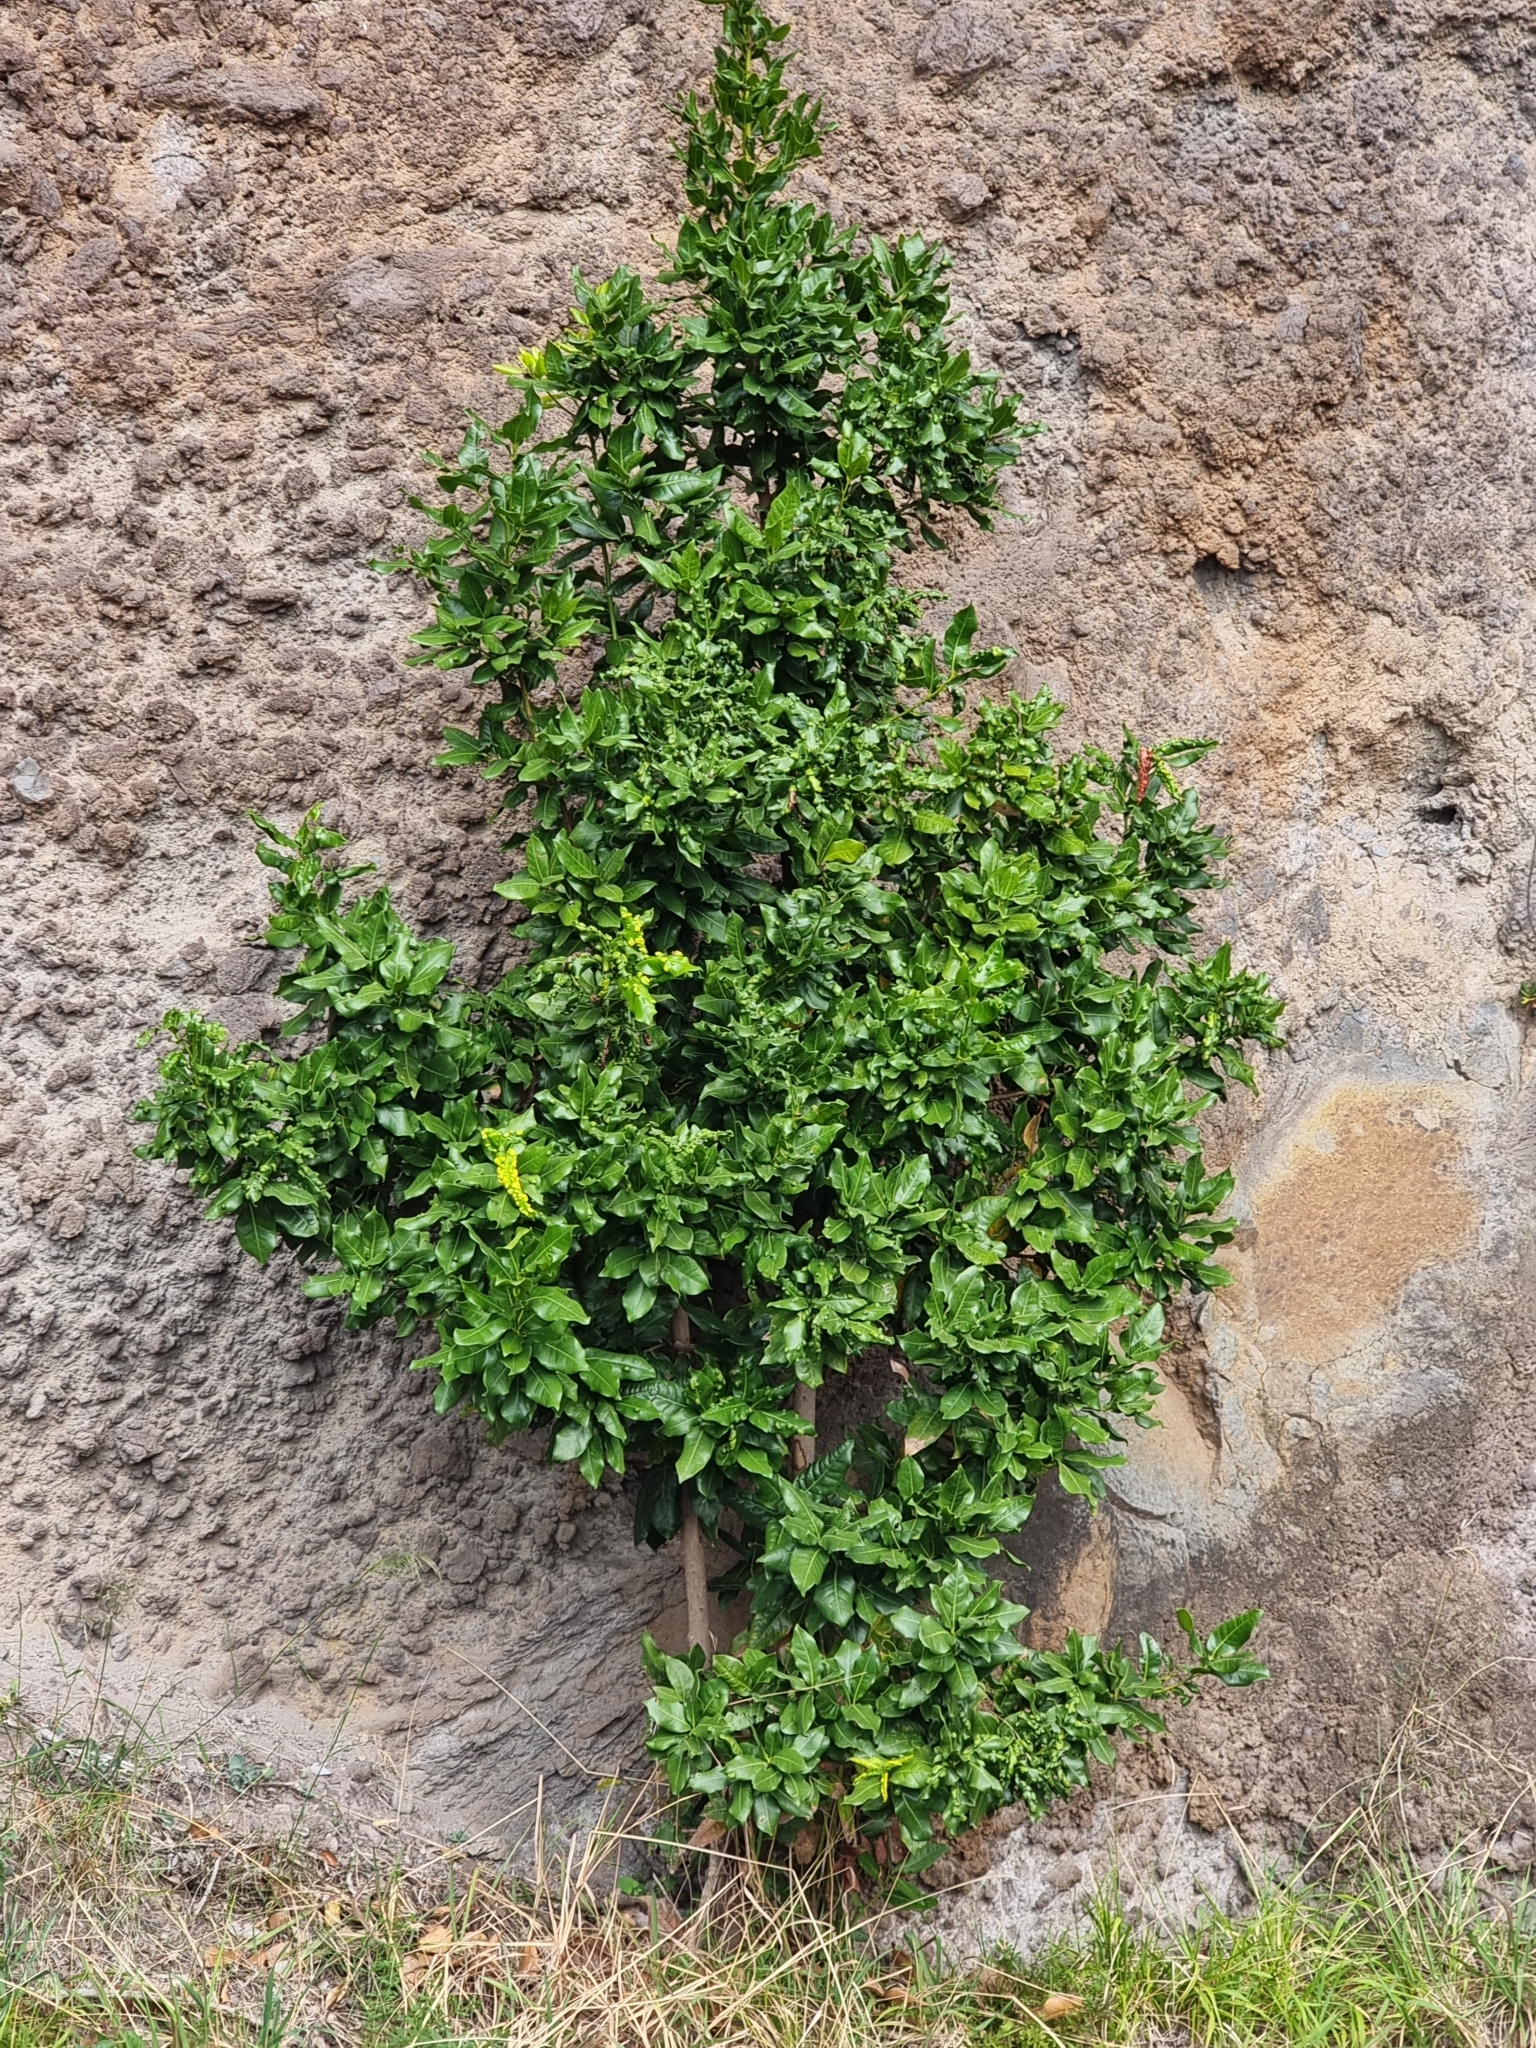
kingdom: Plantae
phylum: Tracheophyta
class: Magnoliopsida
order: Laurales
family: Lauraceae
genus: Apollonias
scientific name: Apollonias barbujana
